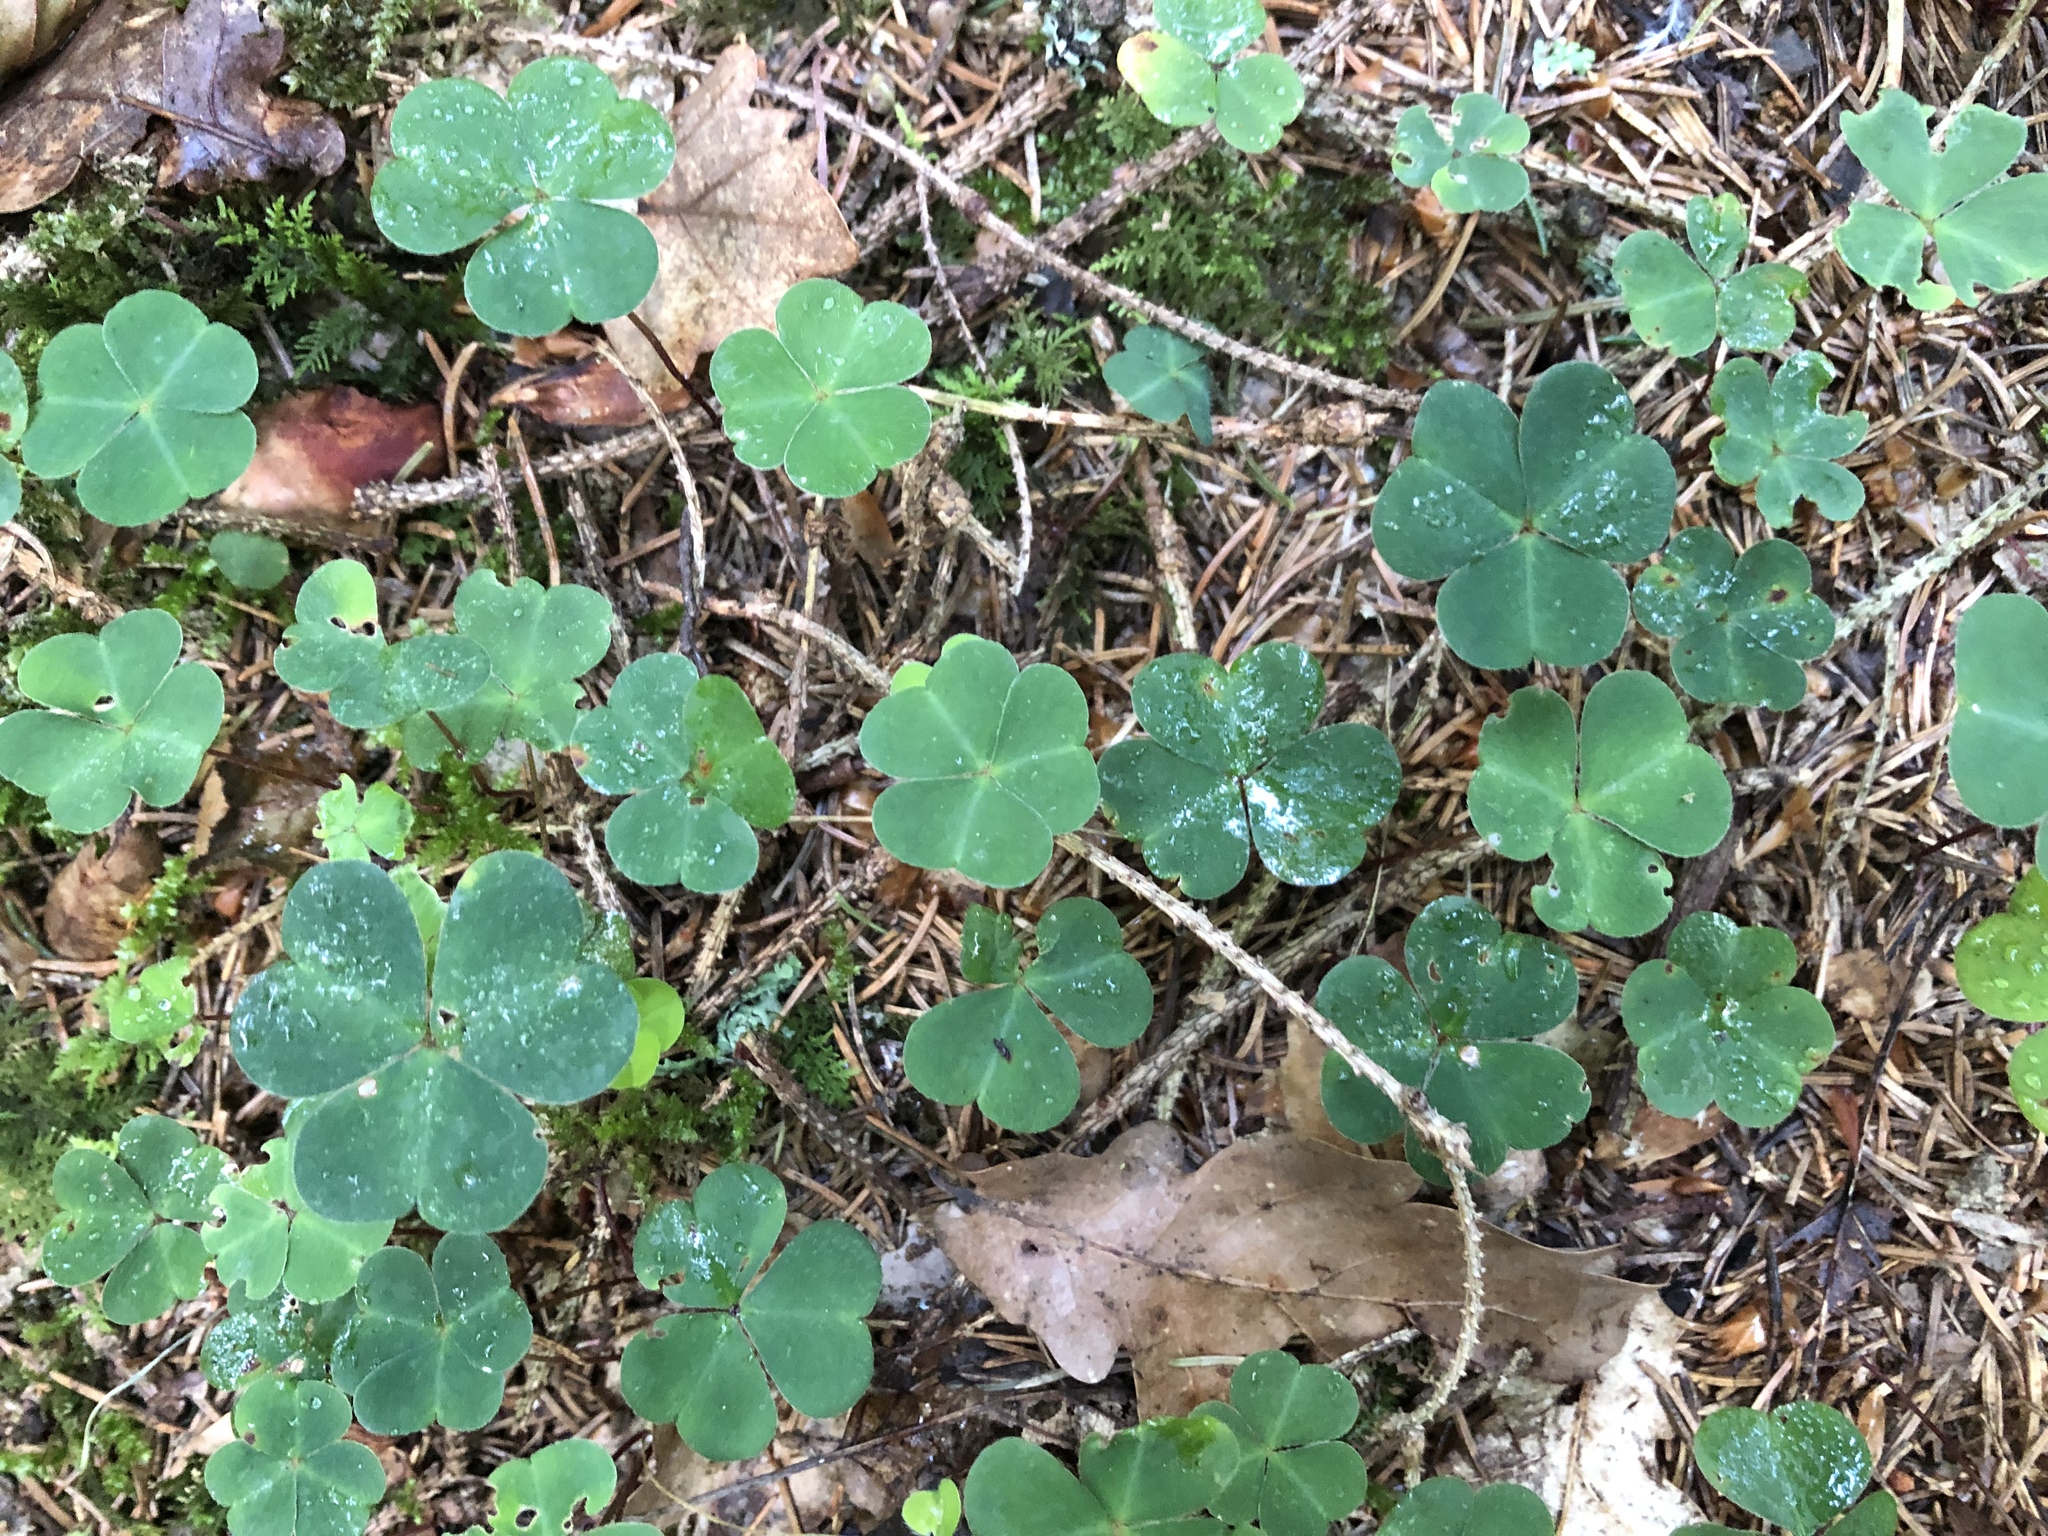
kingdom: Plantae
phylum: Tracheophyta
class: Magnoliopsida
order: Oxalidales
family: Oxalidaceae
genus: Oxalis
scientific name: Oxalis acetosella
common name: Wood-sorrel
